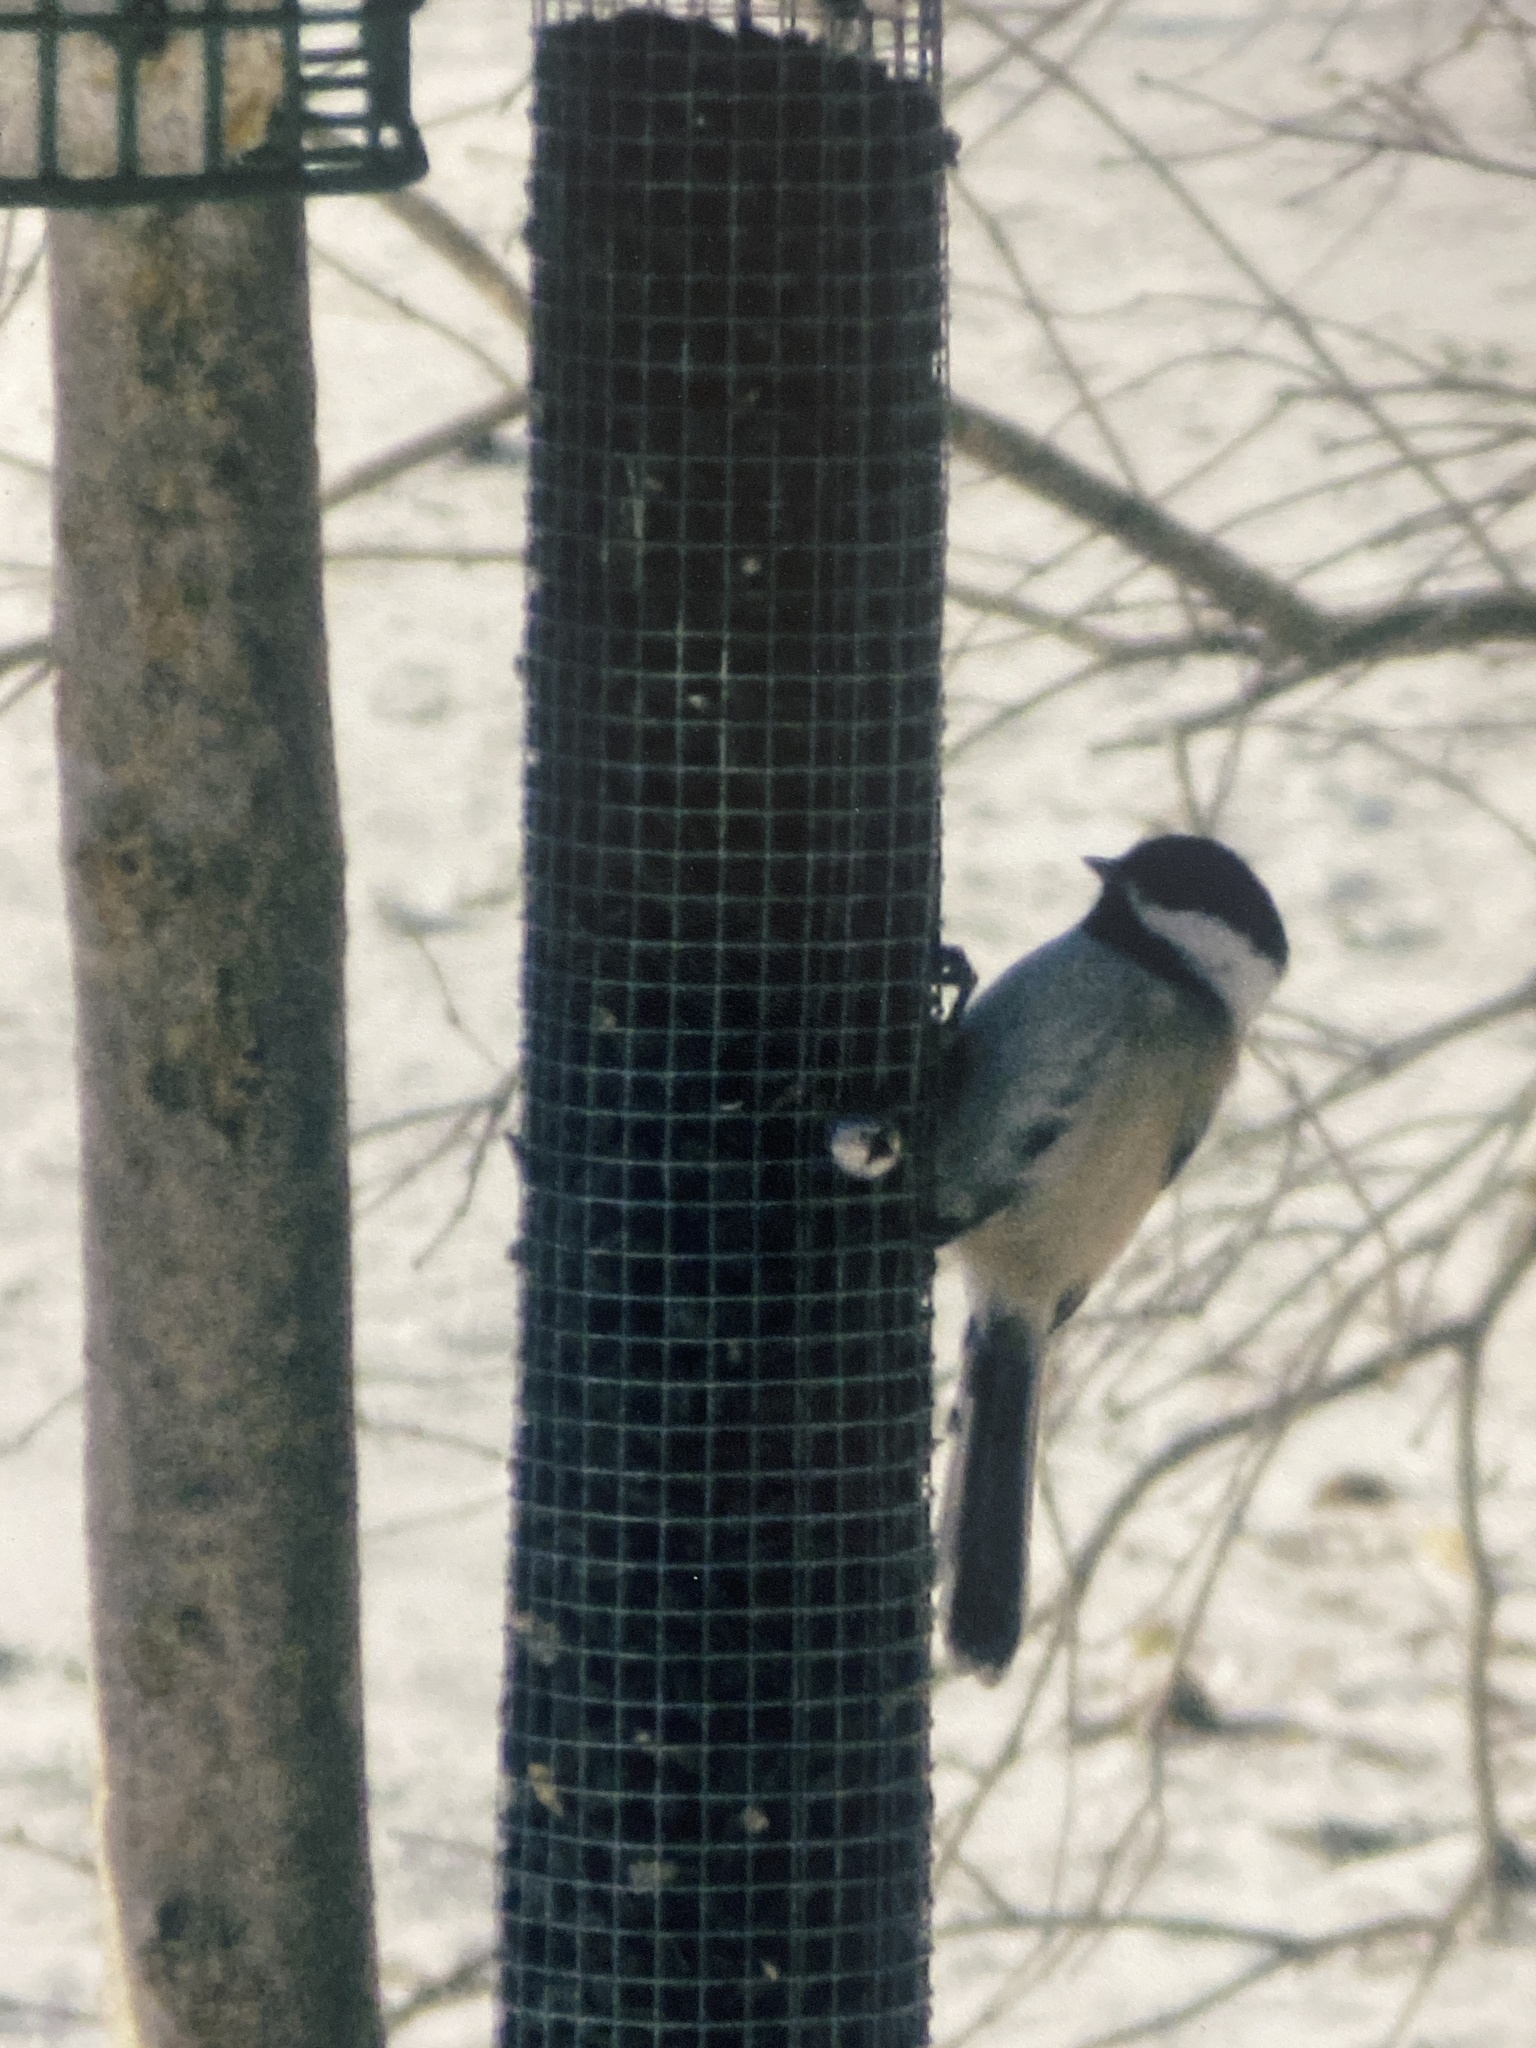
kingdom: Animalia
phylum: Chordata
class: Aves
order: Passeriformes
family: Paridae
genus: Poecile
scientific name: Poecile atricapillus
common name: Black-capped chickadee
